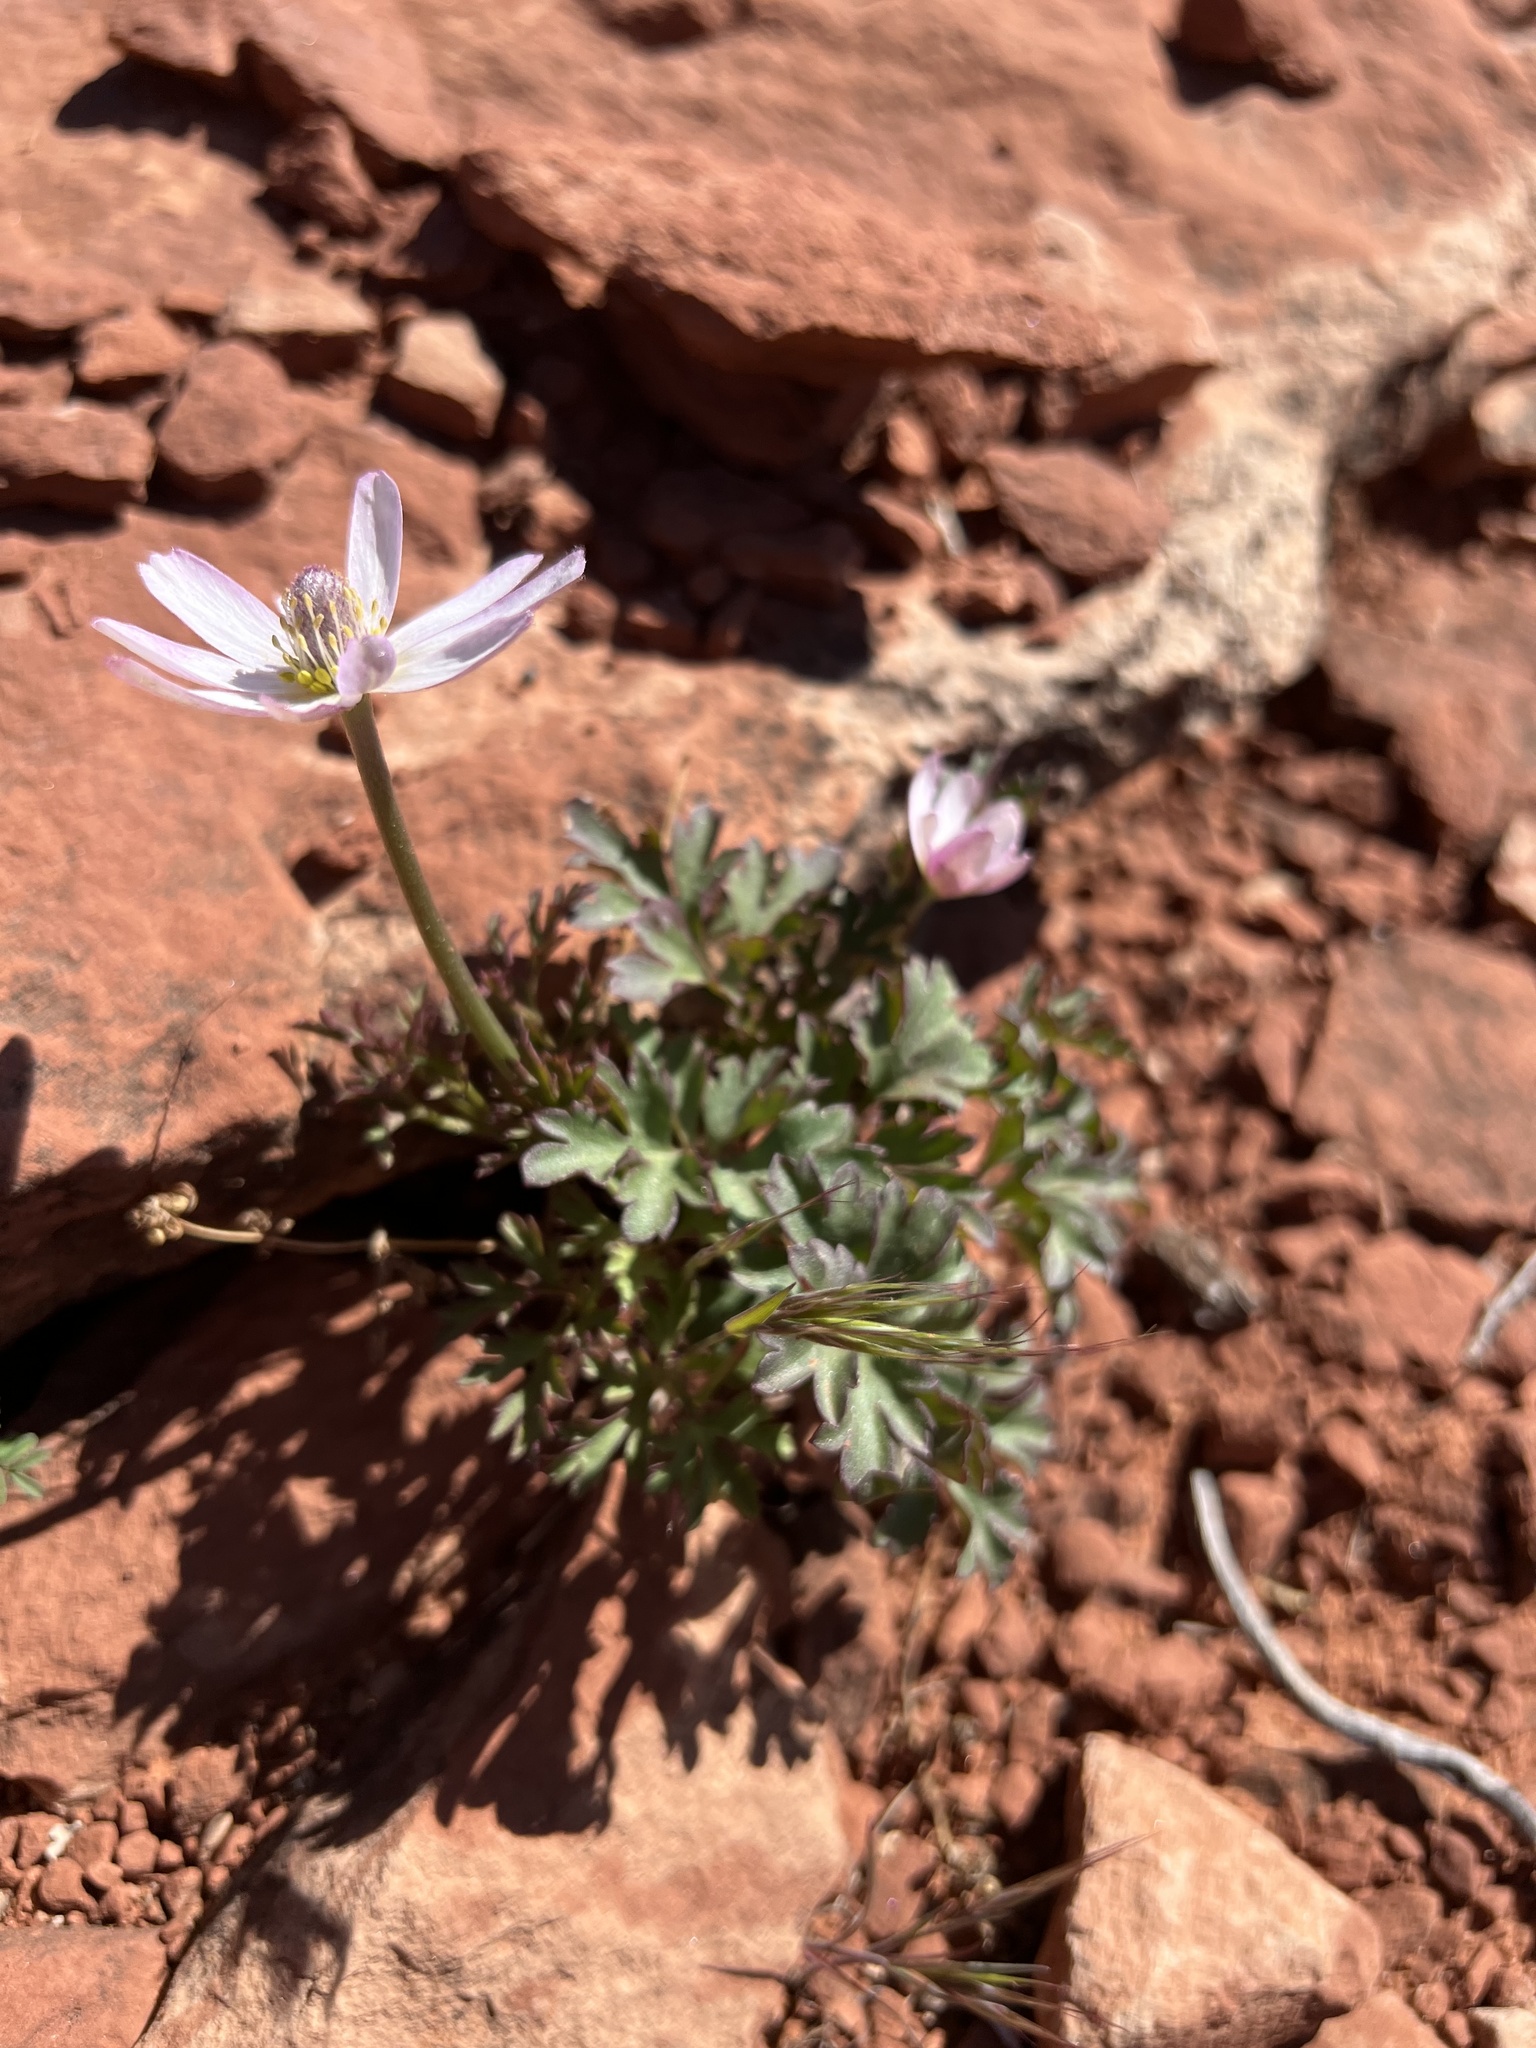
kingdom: Plantae
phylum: Tracheophyta
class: Magnoliopsida
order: Ranunculales
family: Ranunculaceae
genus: Anemone
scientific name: Anemone tuberosa
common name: Desert anemone
